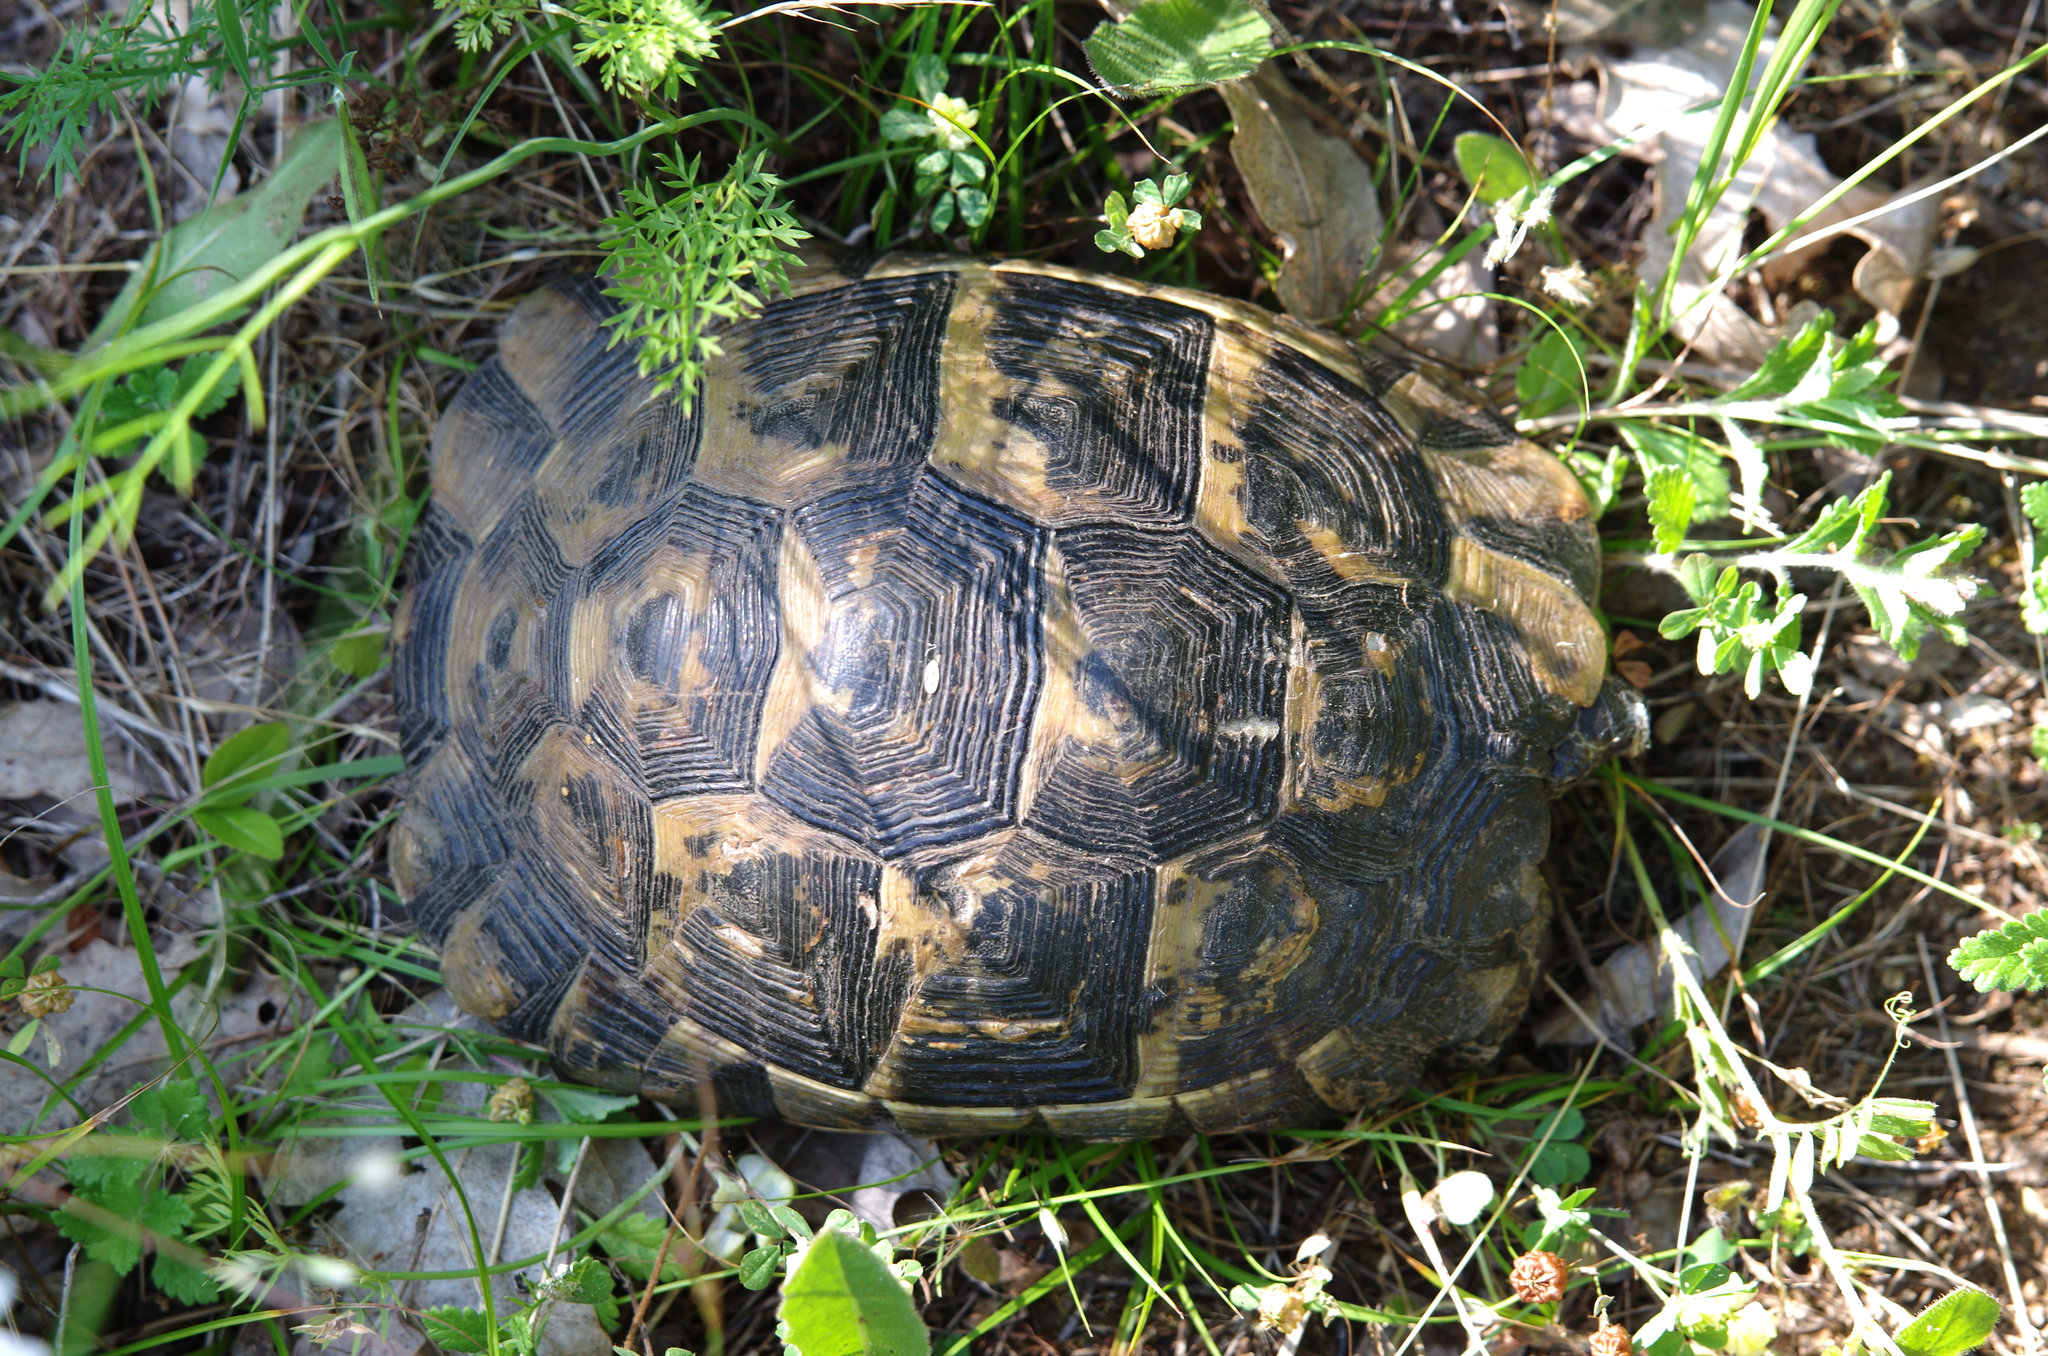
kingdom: Animalia
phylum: Chordata
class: Testudines
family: Testudinidae
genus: Testudo
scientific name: Testudo graeca
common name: Common tortoise
